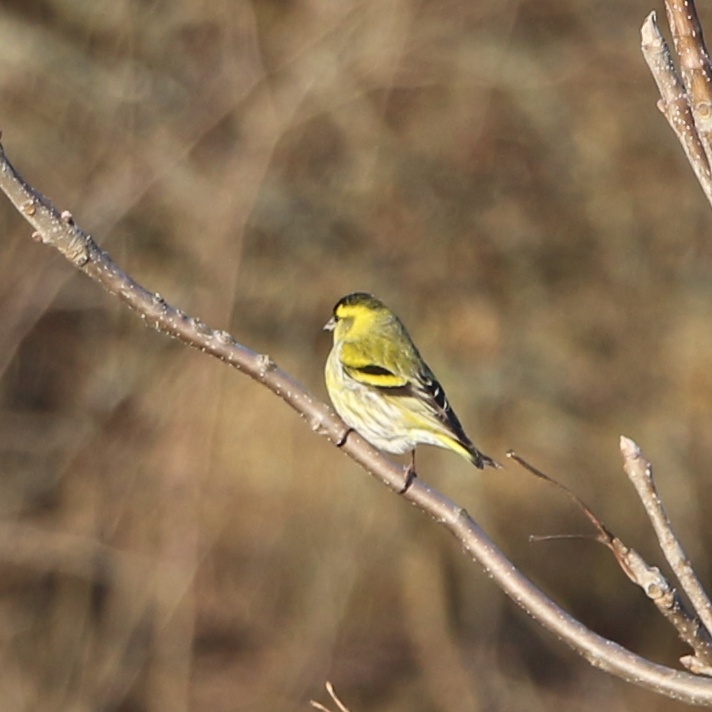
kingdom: Animalia
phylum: Chordata
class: Aves
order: Passeriformes
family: Fringillidae
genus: Spinus
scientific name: Spinus spinus
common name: Eurasian siskin
